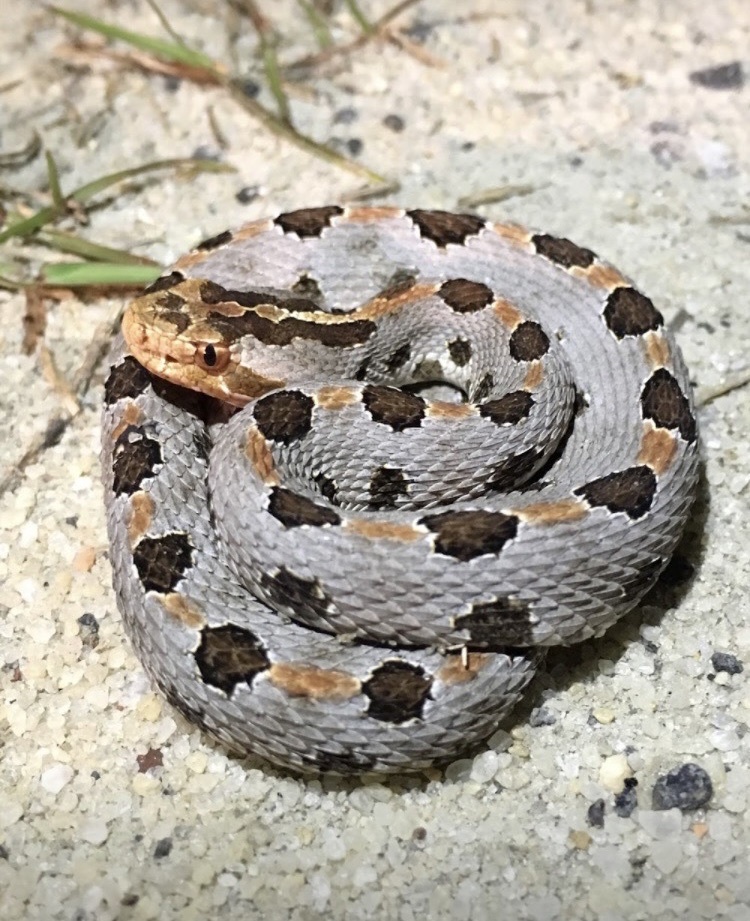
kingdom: Animalia
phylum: Chordata
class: Squamata
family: Viperidae
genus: Sistrurus
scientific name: Sistrurus miliarius
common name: Pygmy rattlesnake
